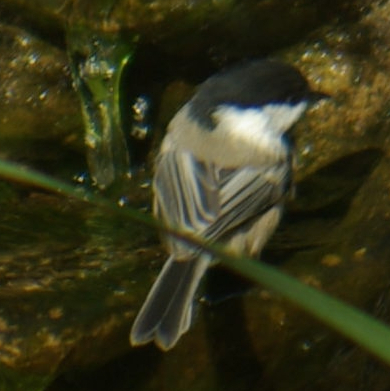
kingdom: Animalia
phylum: Chordata
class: Aves
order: Passeriformes
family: Paridae
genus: Poecile
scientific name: Poecile atricapillus
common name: Black-capped chickadee
